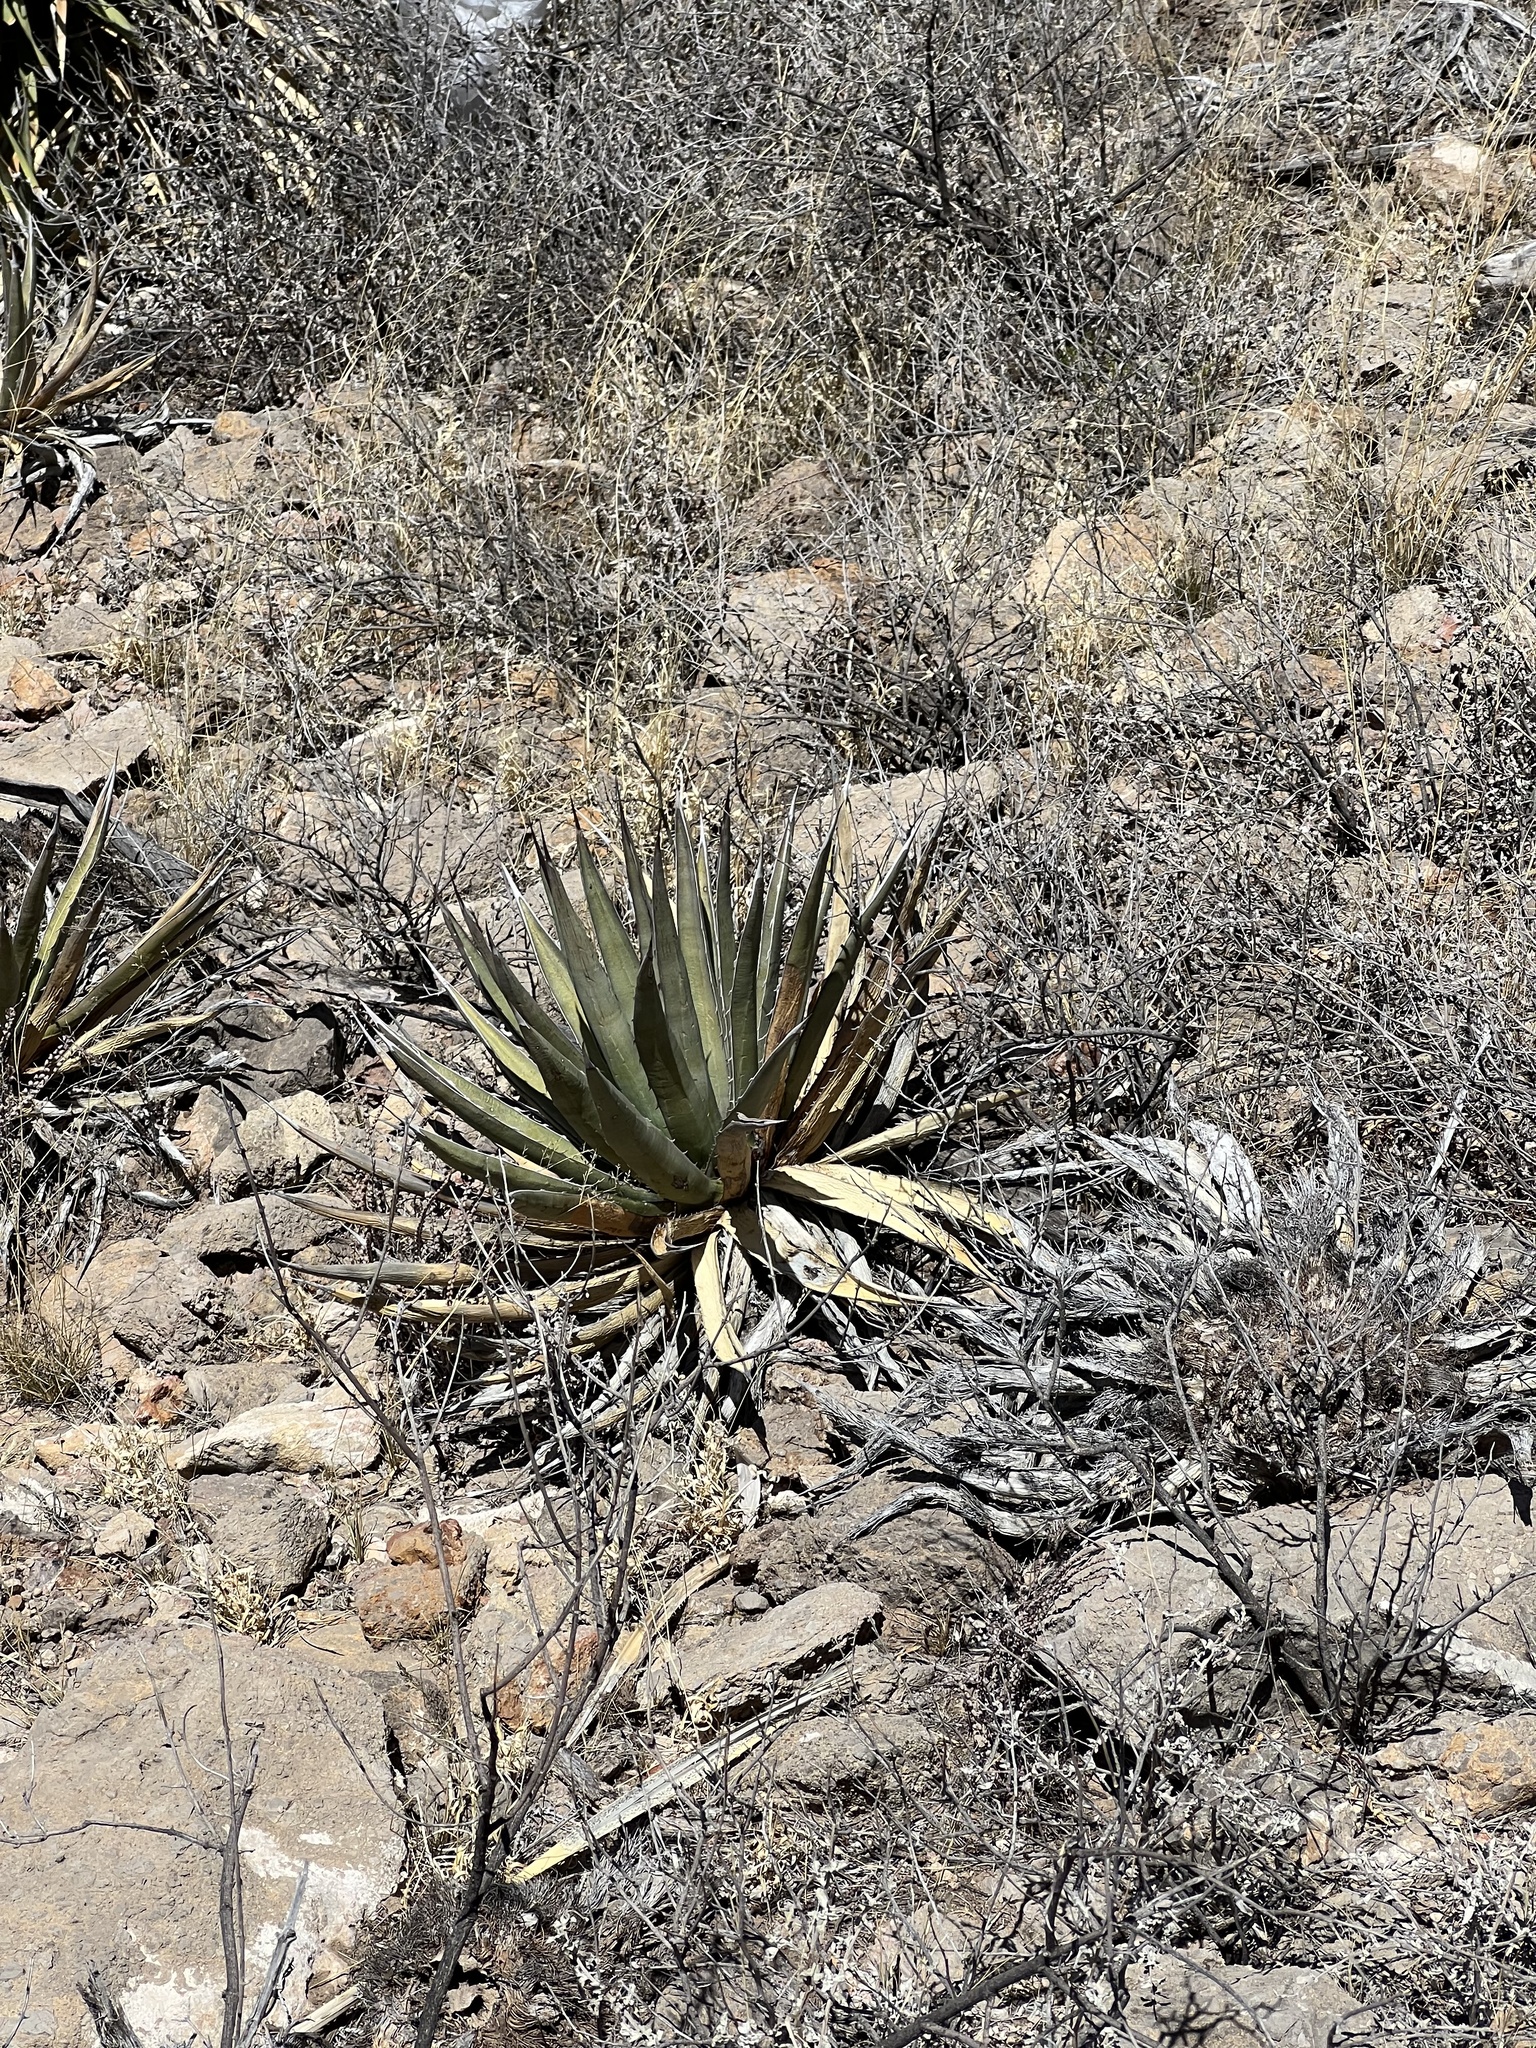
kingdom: Plantae
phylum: Tracheophyta
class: Liliopsida
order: Asparagales
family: Asparagaceae
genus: Agave
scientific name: Agave lechuguilla
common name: Lecheguilla agave
